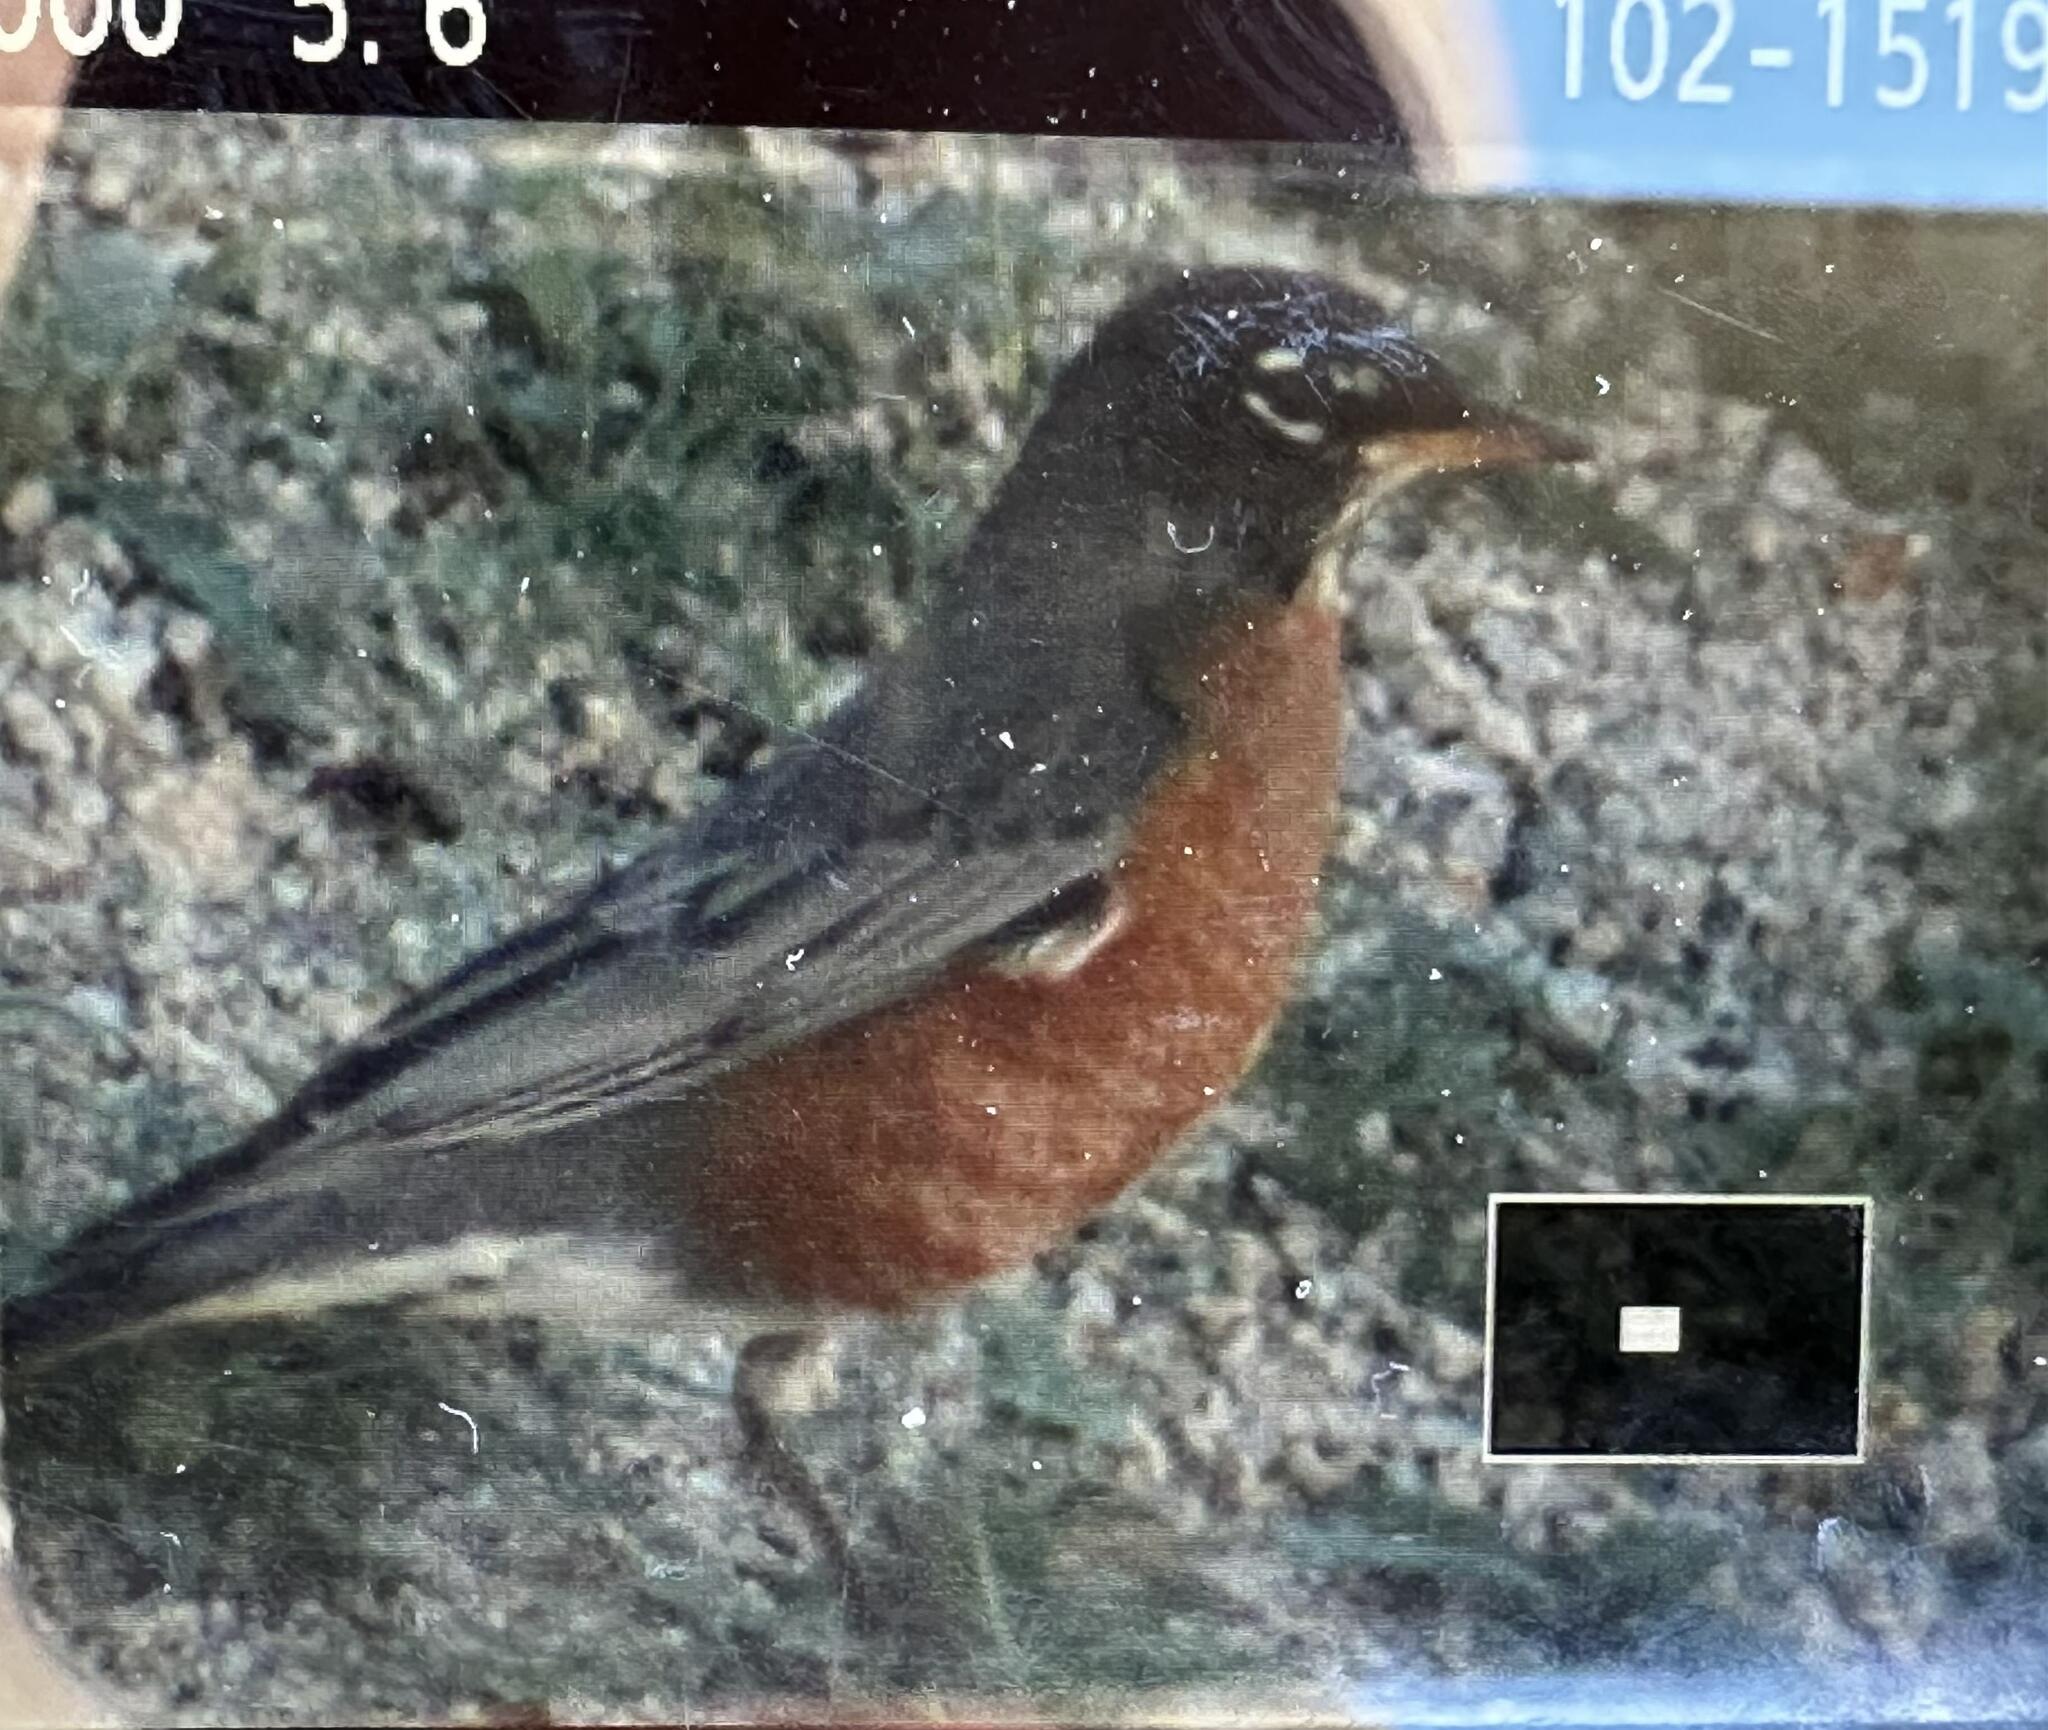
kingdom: Animalia
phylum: Chordata
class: Aves
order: Passeriformes
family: Turdidae
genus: Turdus
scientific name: Turdus migratorius
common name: American robin
